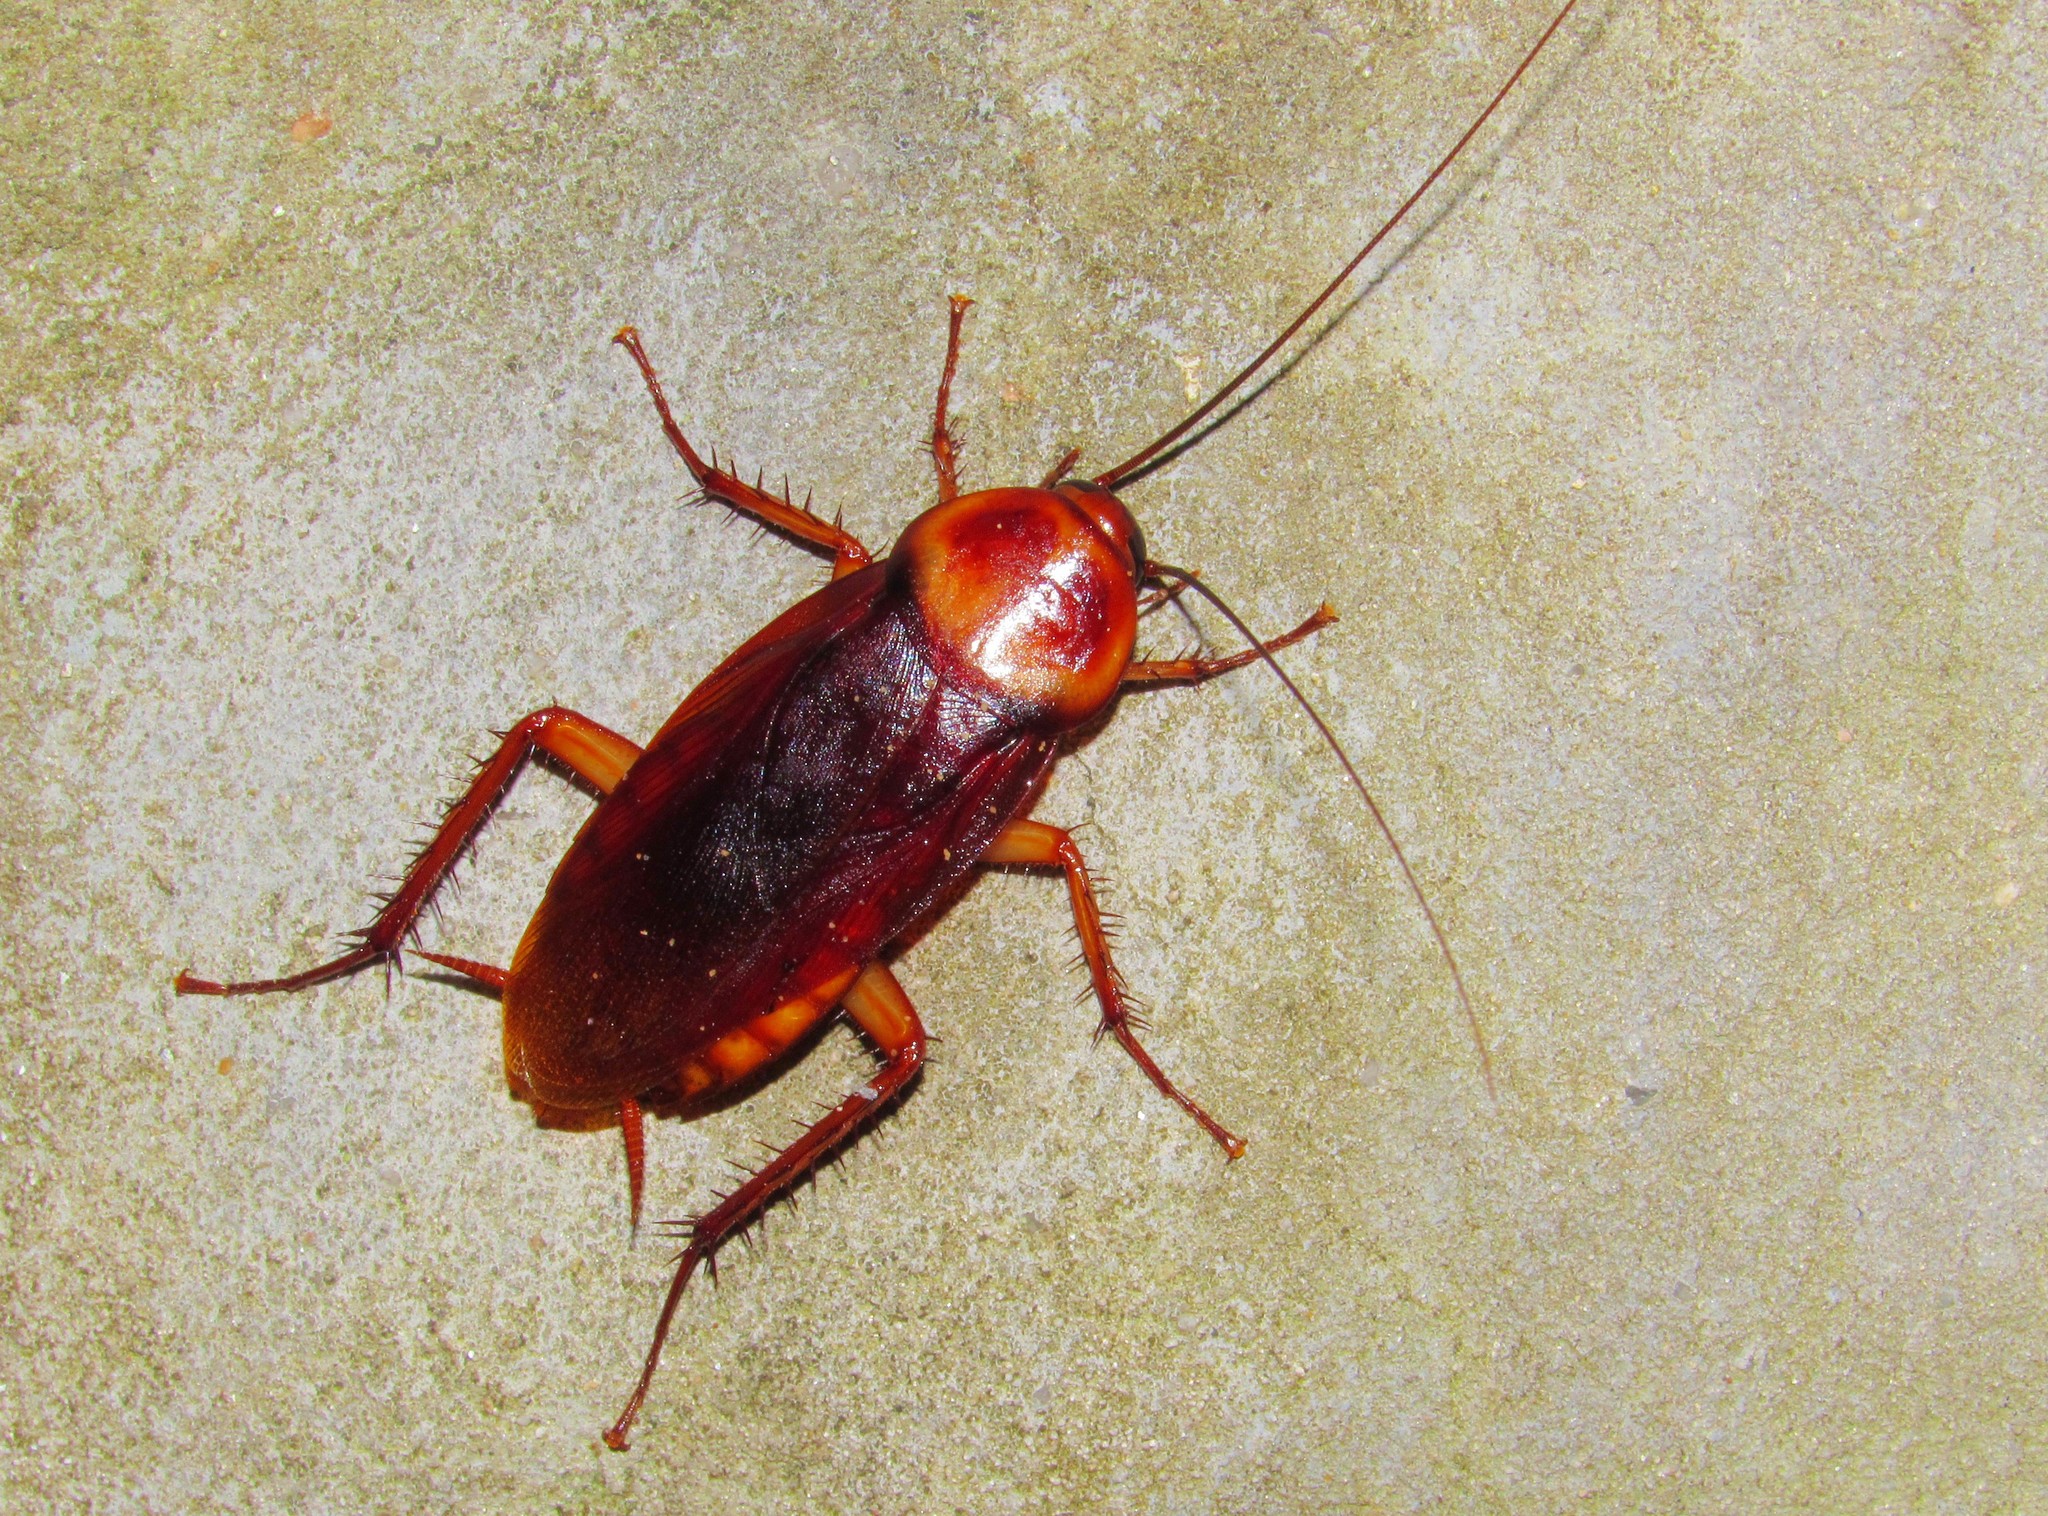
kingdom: Animalia
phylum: Arthropoda
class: Insecta
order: Blattodea
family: Blattidae
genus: Periplaneta
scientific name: Periplaneta americana
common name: American cockroach
